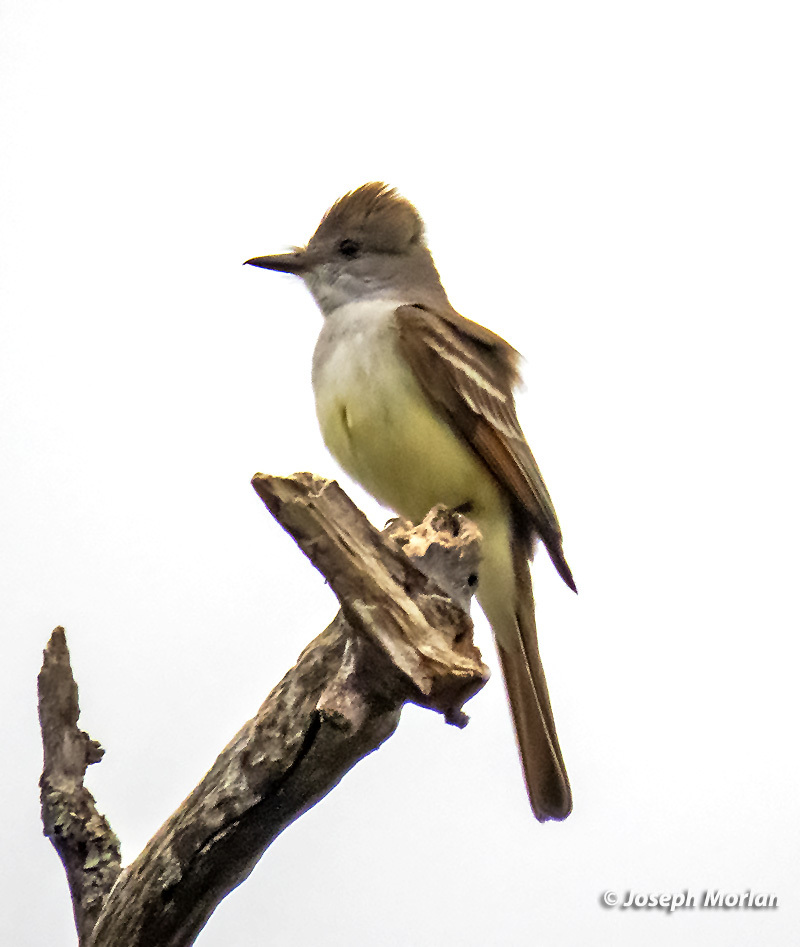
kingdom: Animalia
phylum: Chordata
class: Aves
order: Passeriformes
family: Tyrannidae
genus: Myiarchus
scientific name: Myiarchus cinerascens
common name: Ash-throated flycatcher
